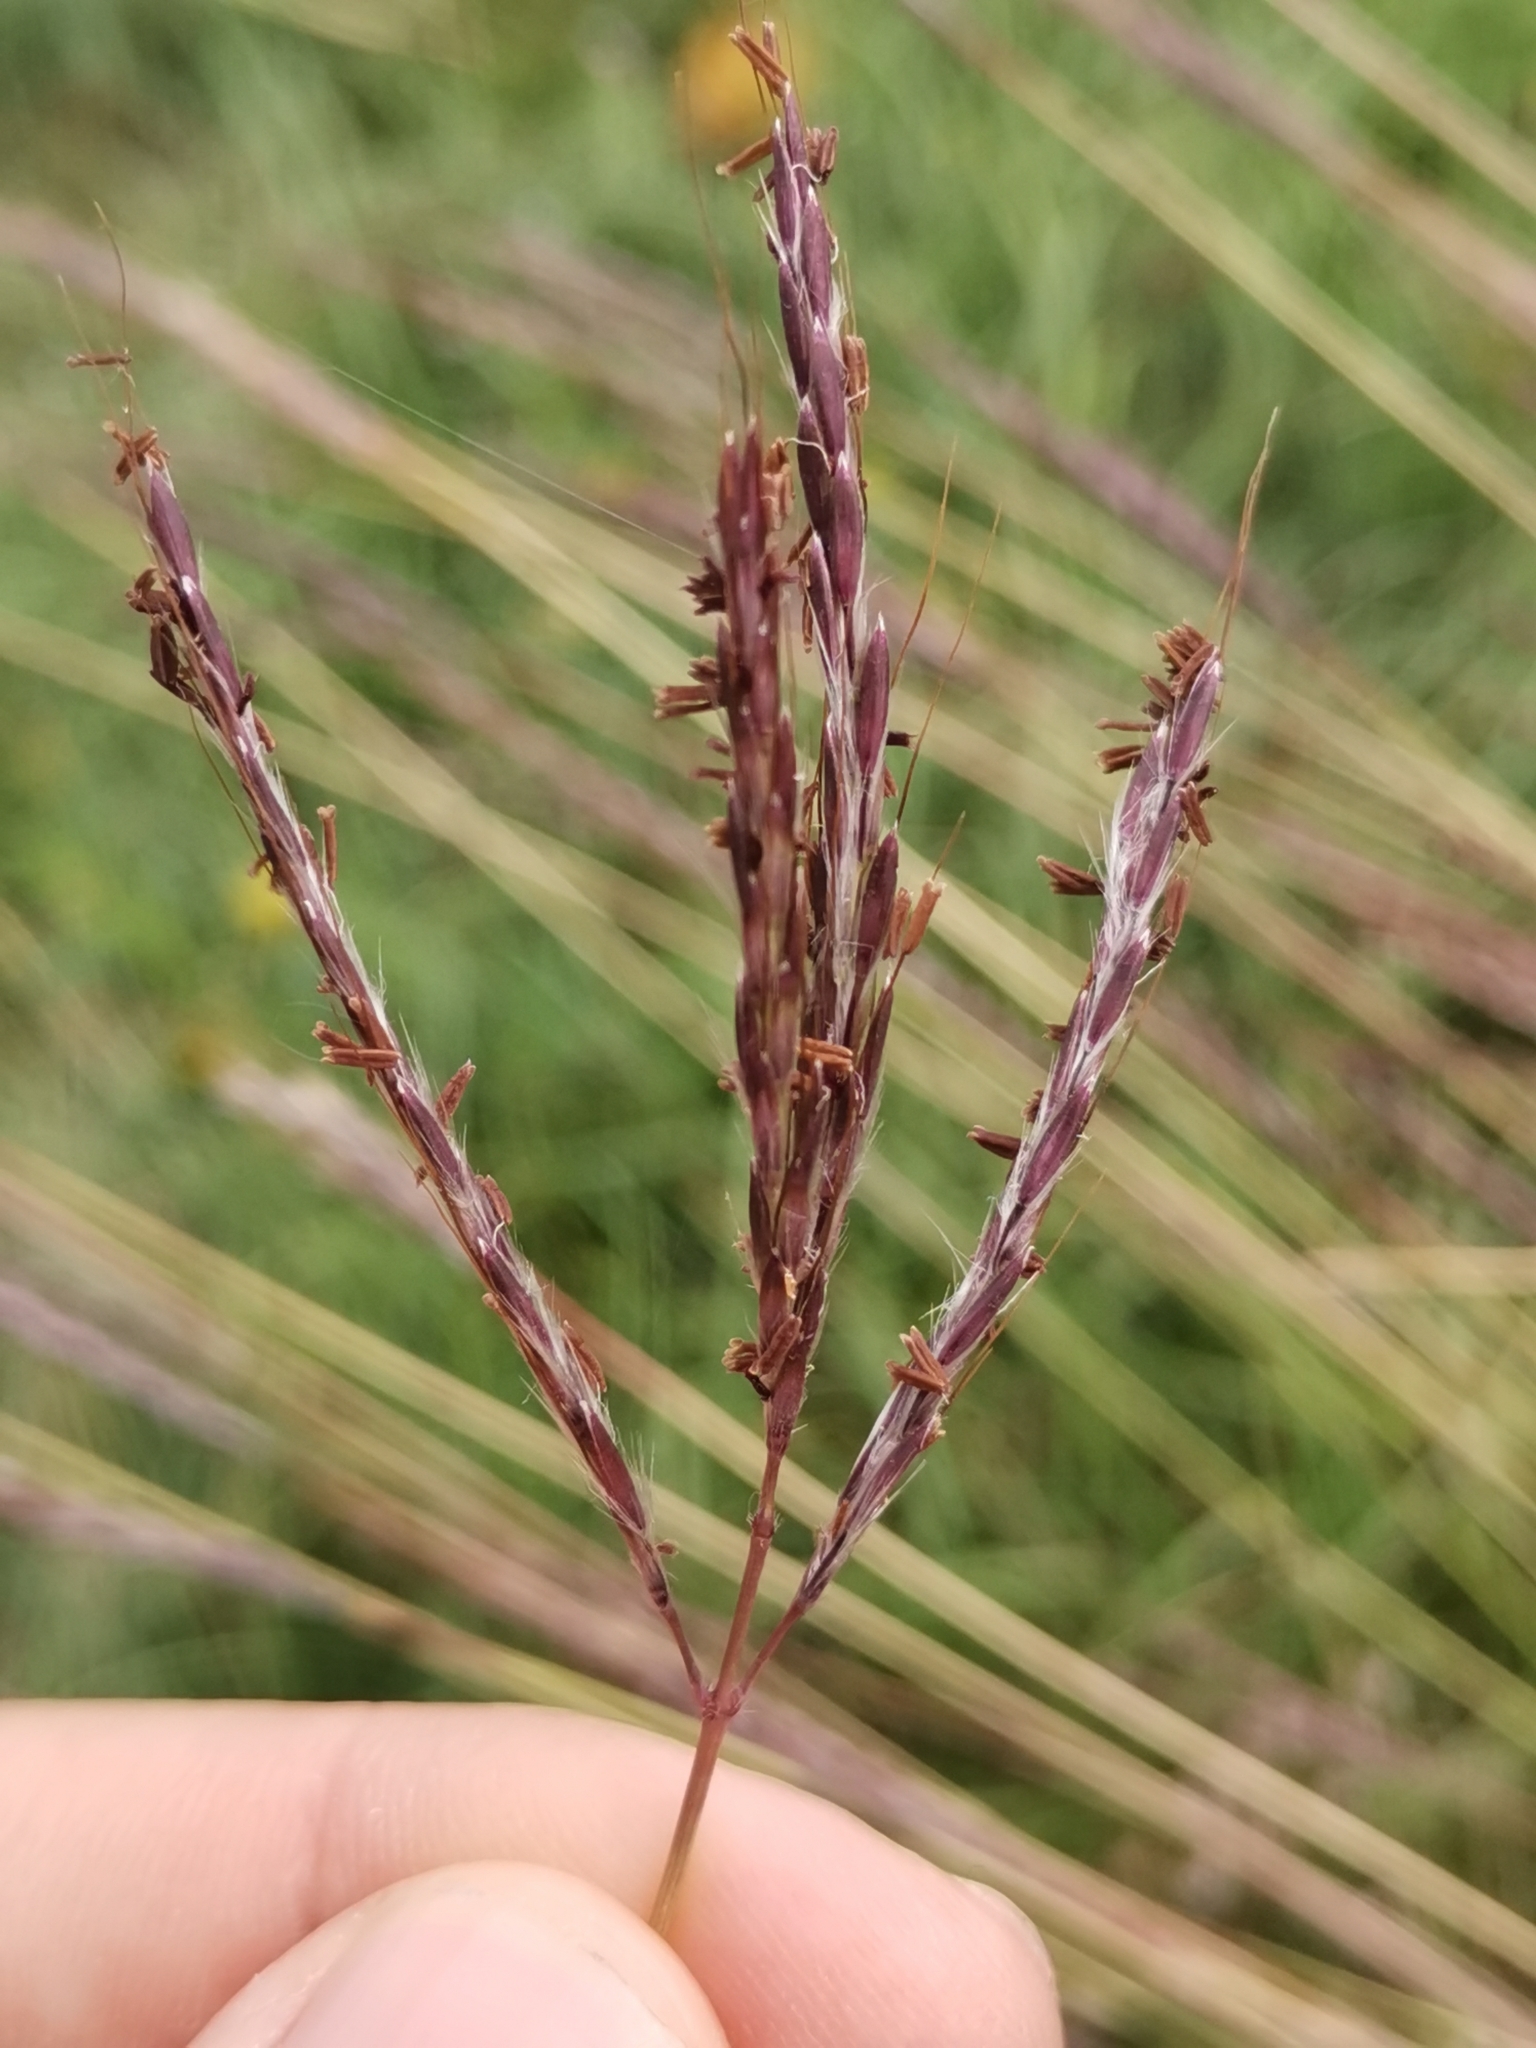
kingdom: Plantae
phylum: Tracheophyta
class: Liliopsida
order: Poales
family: Poaceae
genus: Bothriochloa
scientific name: Bothriochloa ischaemum
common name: Yellow bluestem
